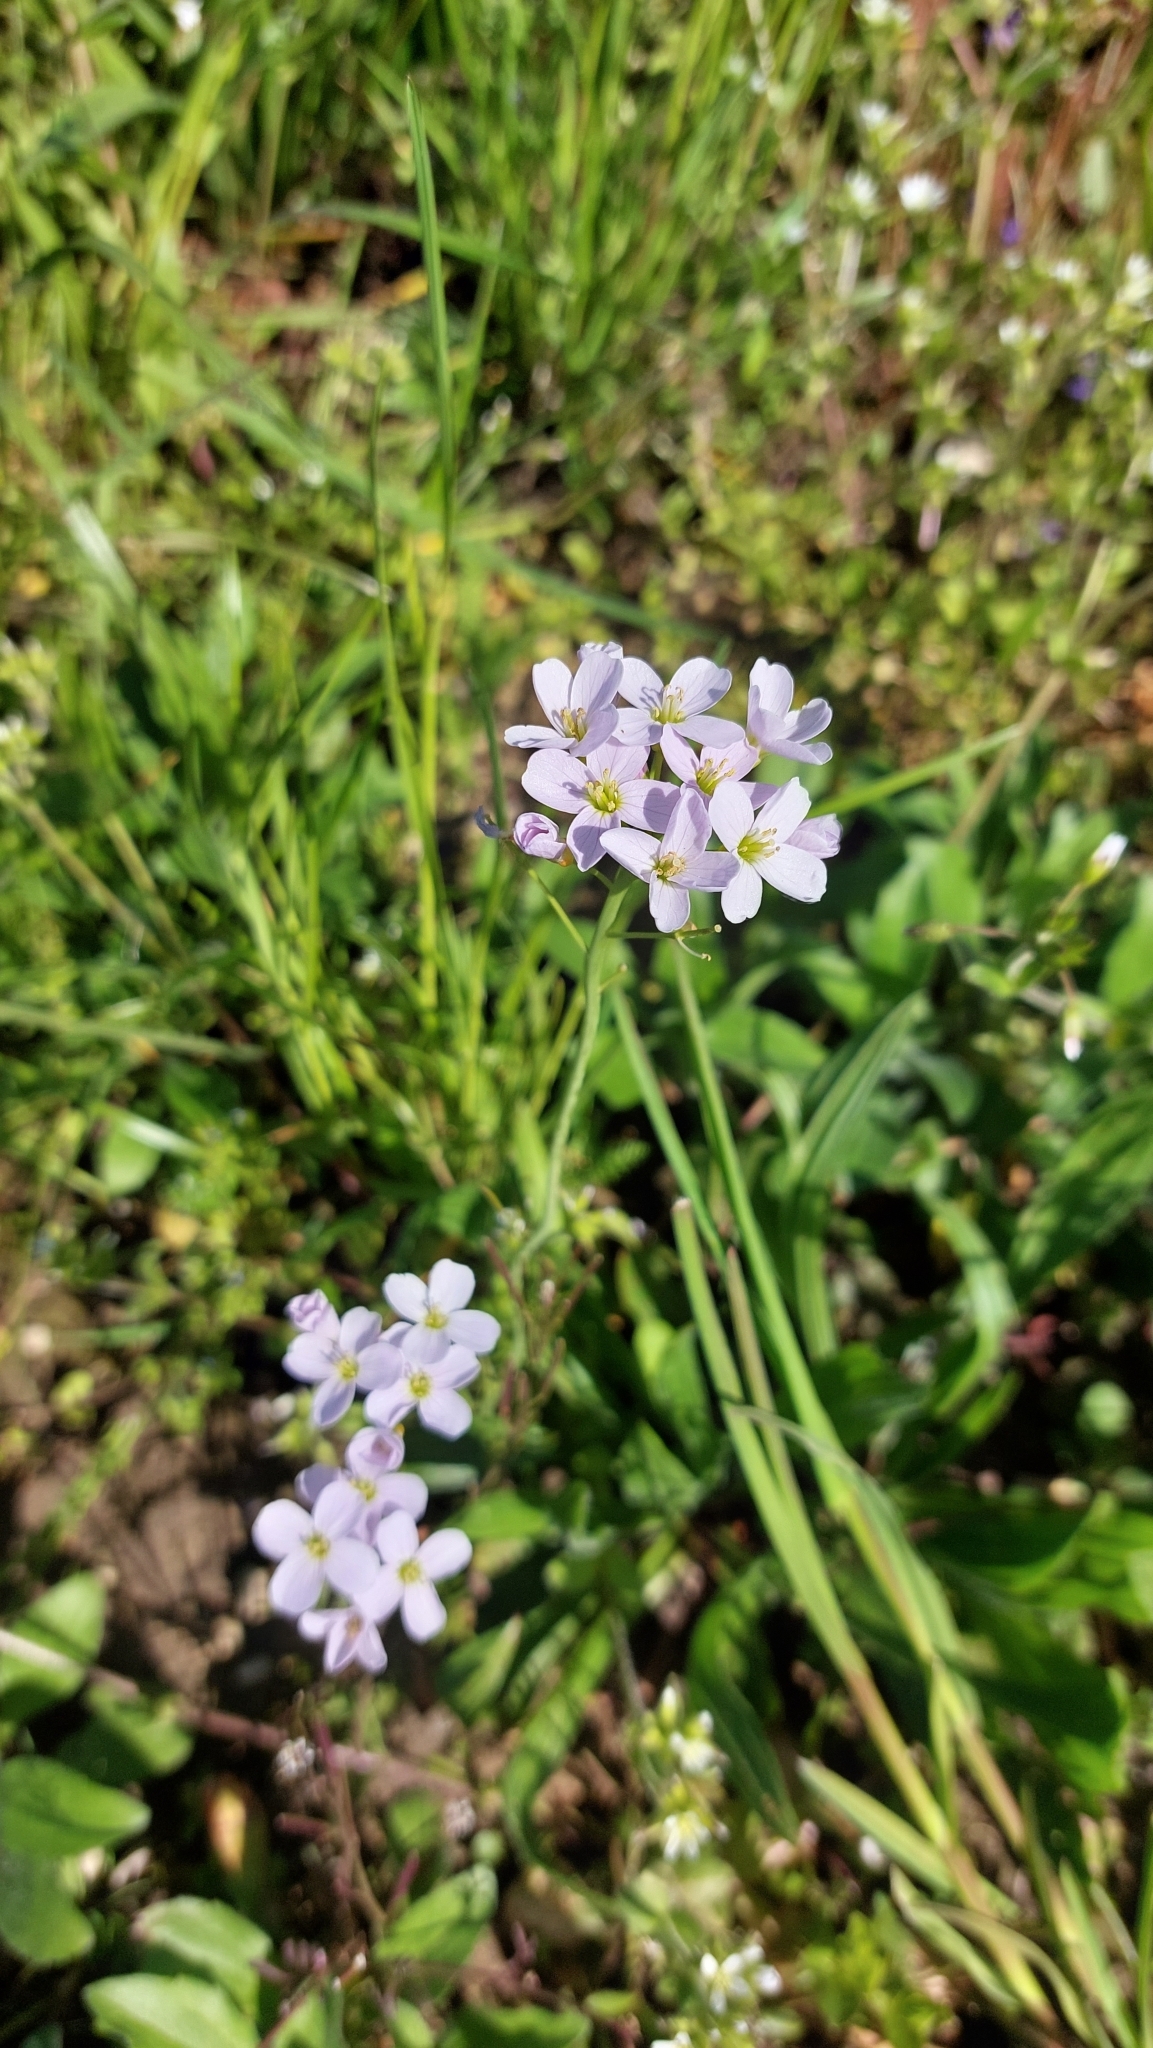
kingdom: Plantae
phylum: Tracheophyta
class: Magnoliopsida
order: Brassicales
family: Brassicaceae
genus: Cardamine
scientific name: Cardamine pratensis
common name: Cuckoo flower
